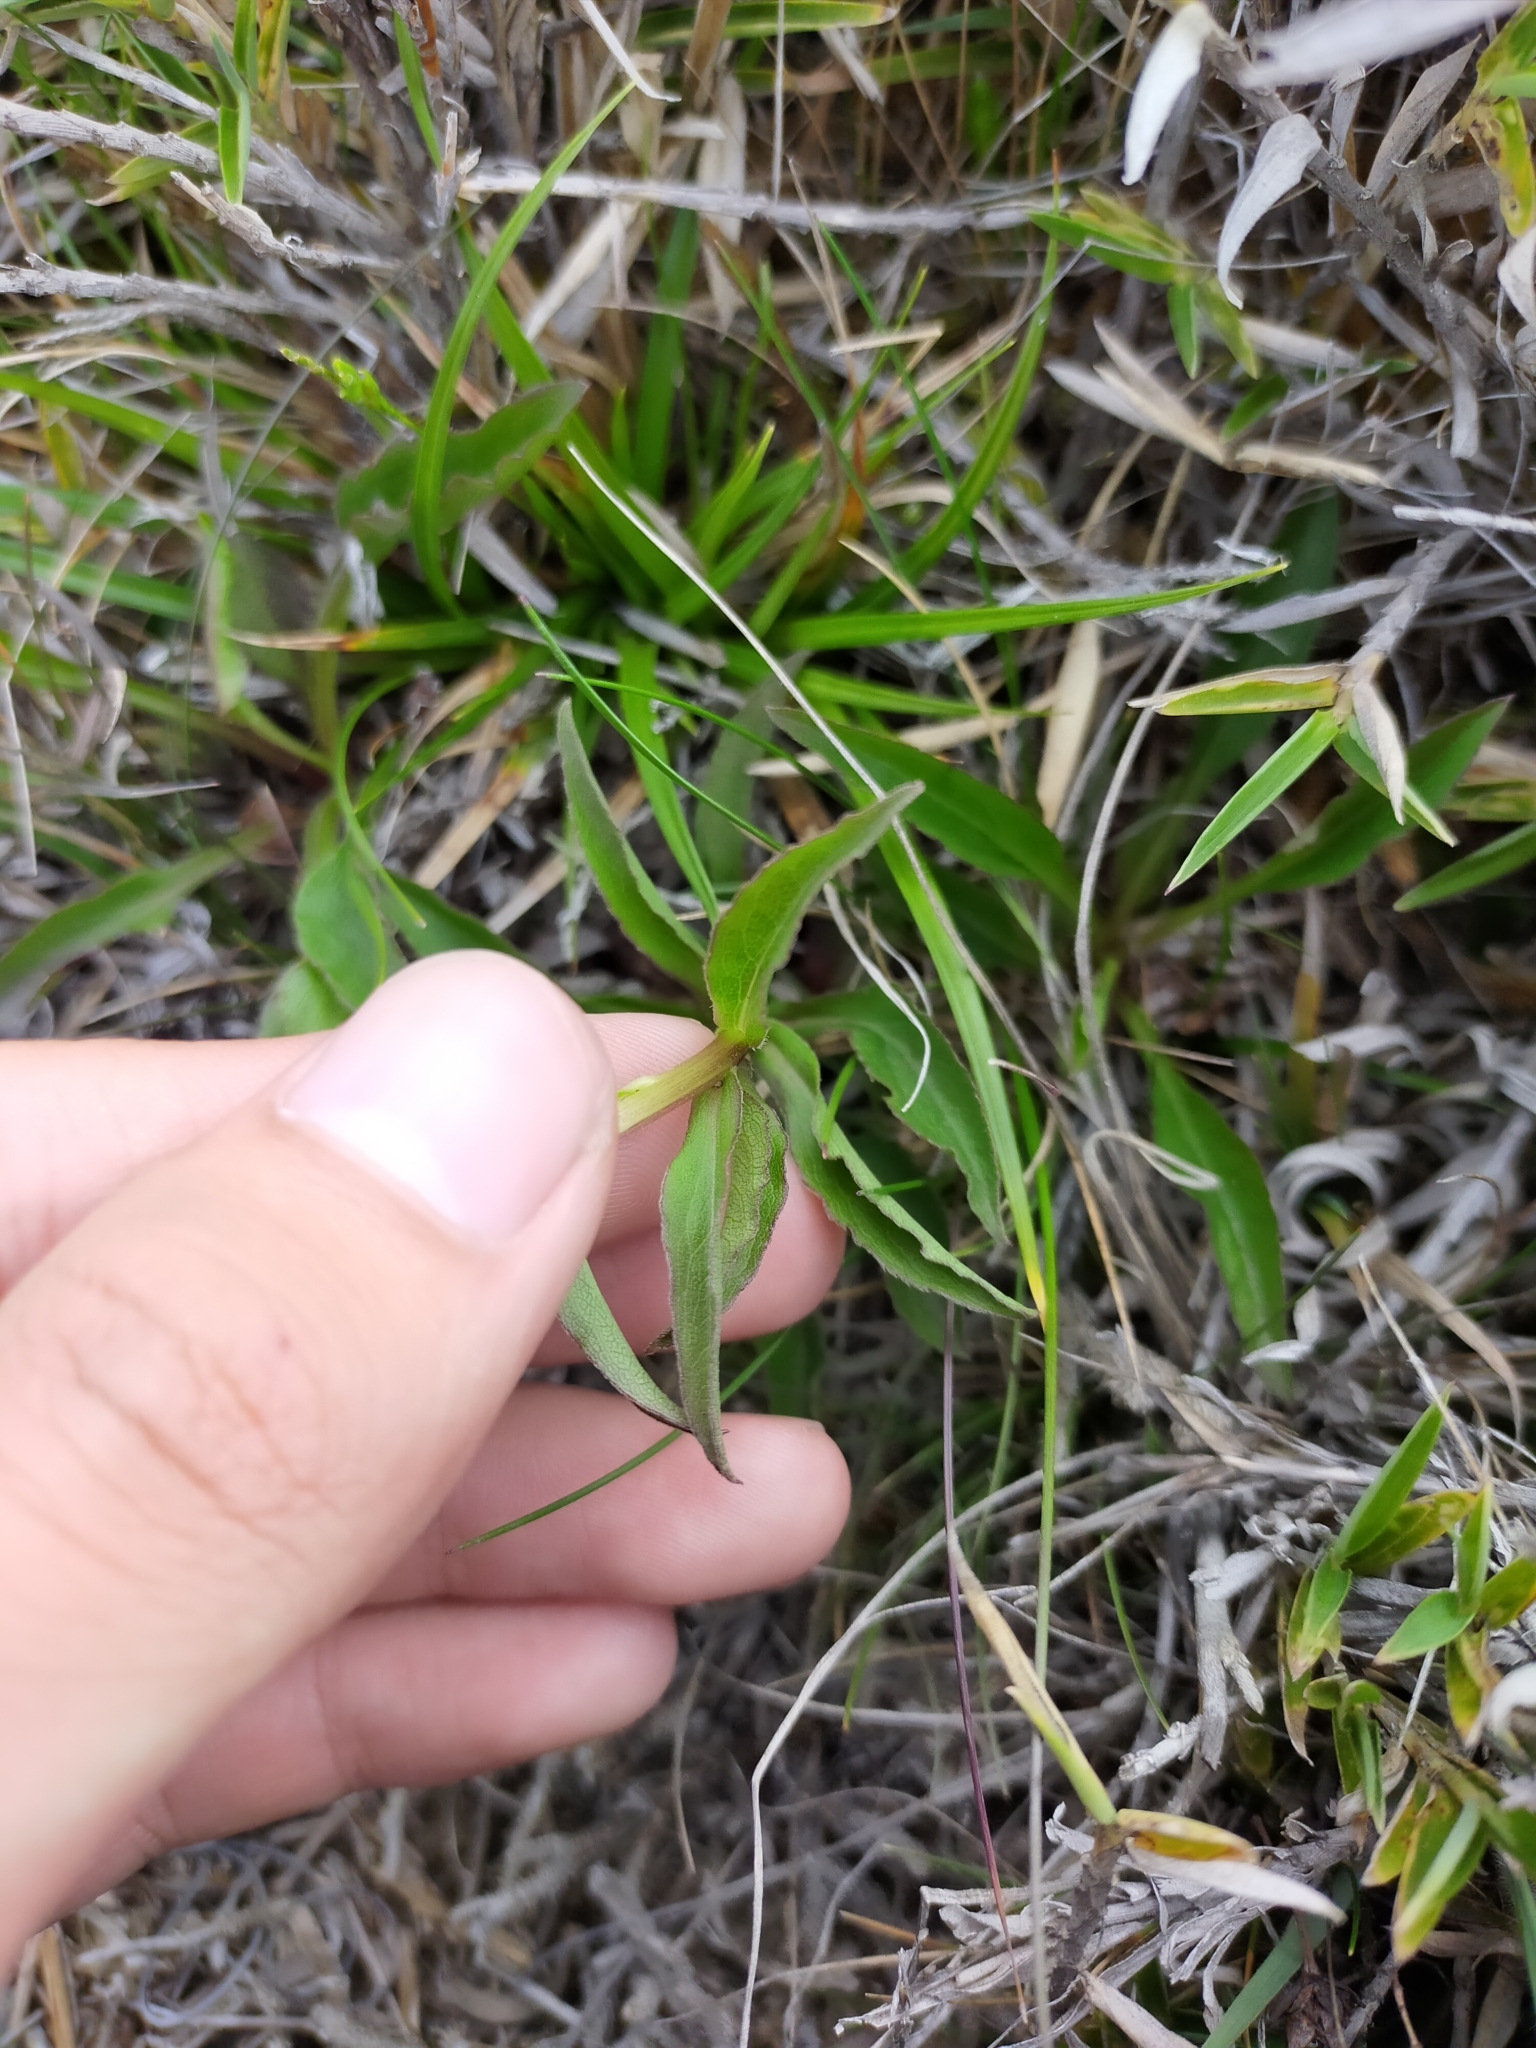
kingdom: Plantae
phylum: Tracheophyta
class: Magnoliopsida
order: Asterales
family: Asteraceae
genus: Solidago
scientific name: Solidago decurrens
